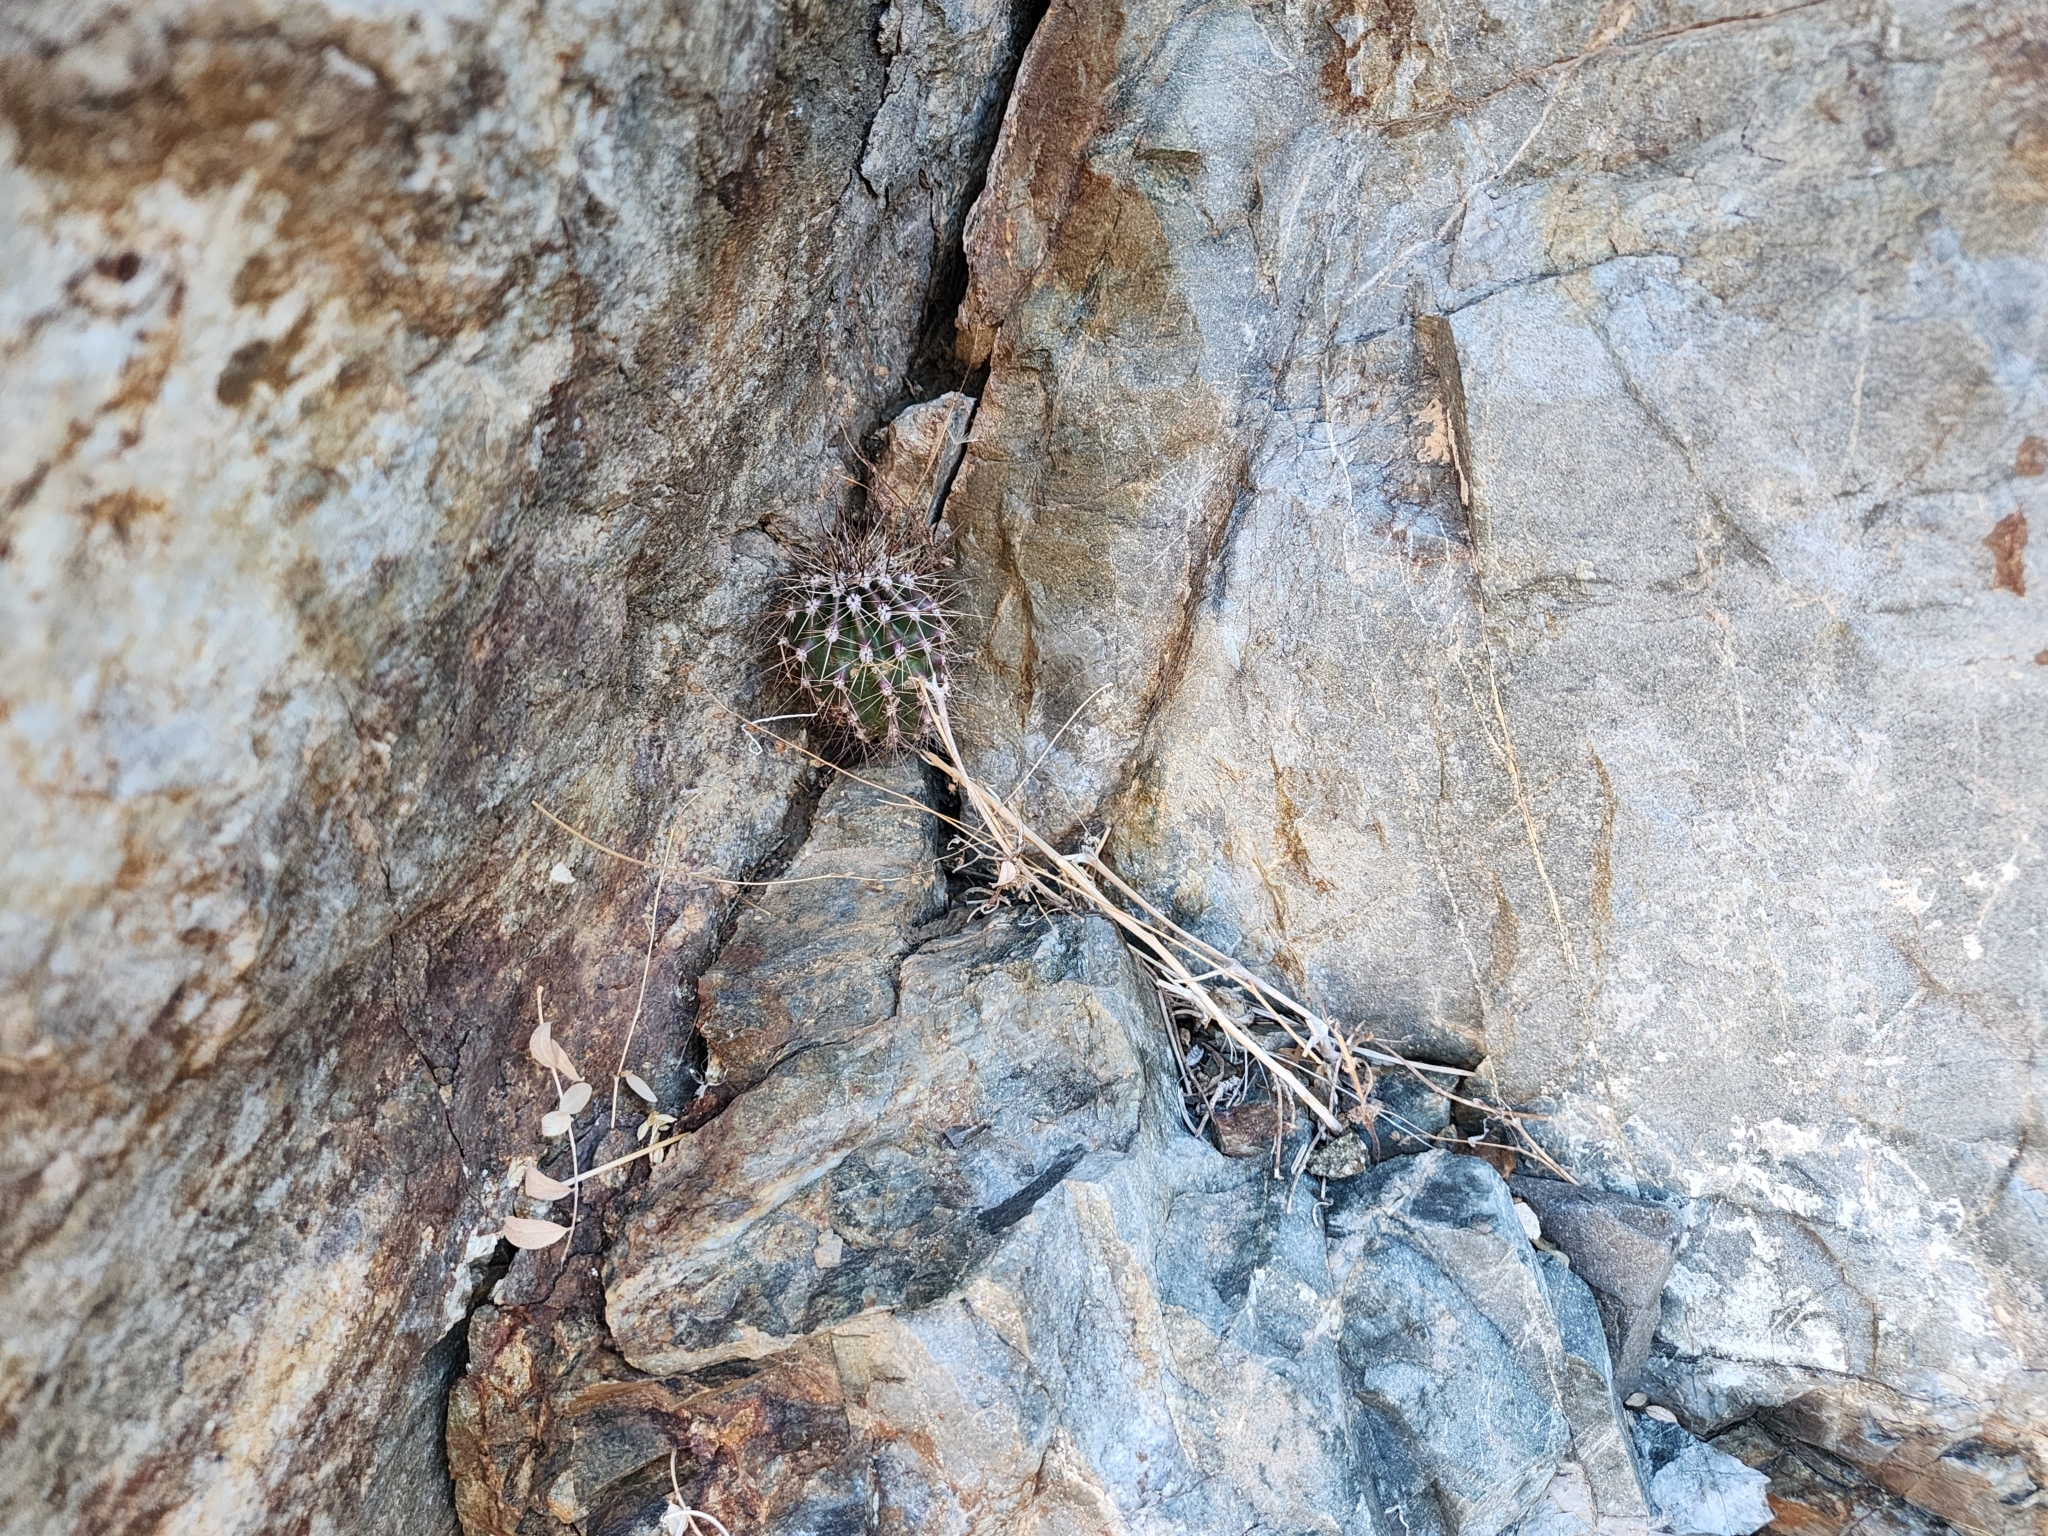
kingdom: Plantae
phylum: Tracheophyta
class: Magnoliopsida
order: Caryophyllales
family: Cactaceae
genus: Carnegiea
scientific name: Carnegiea gigantea
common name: Saguaro
